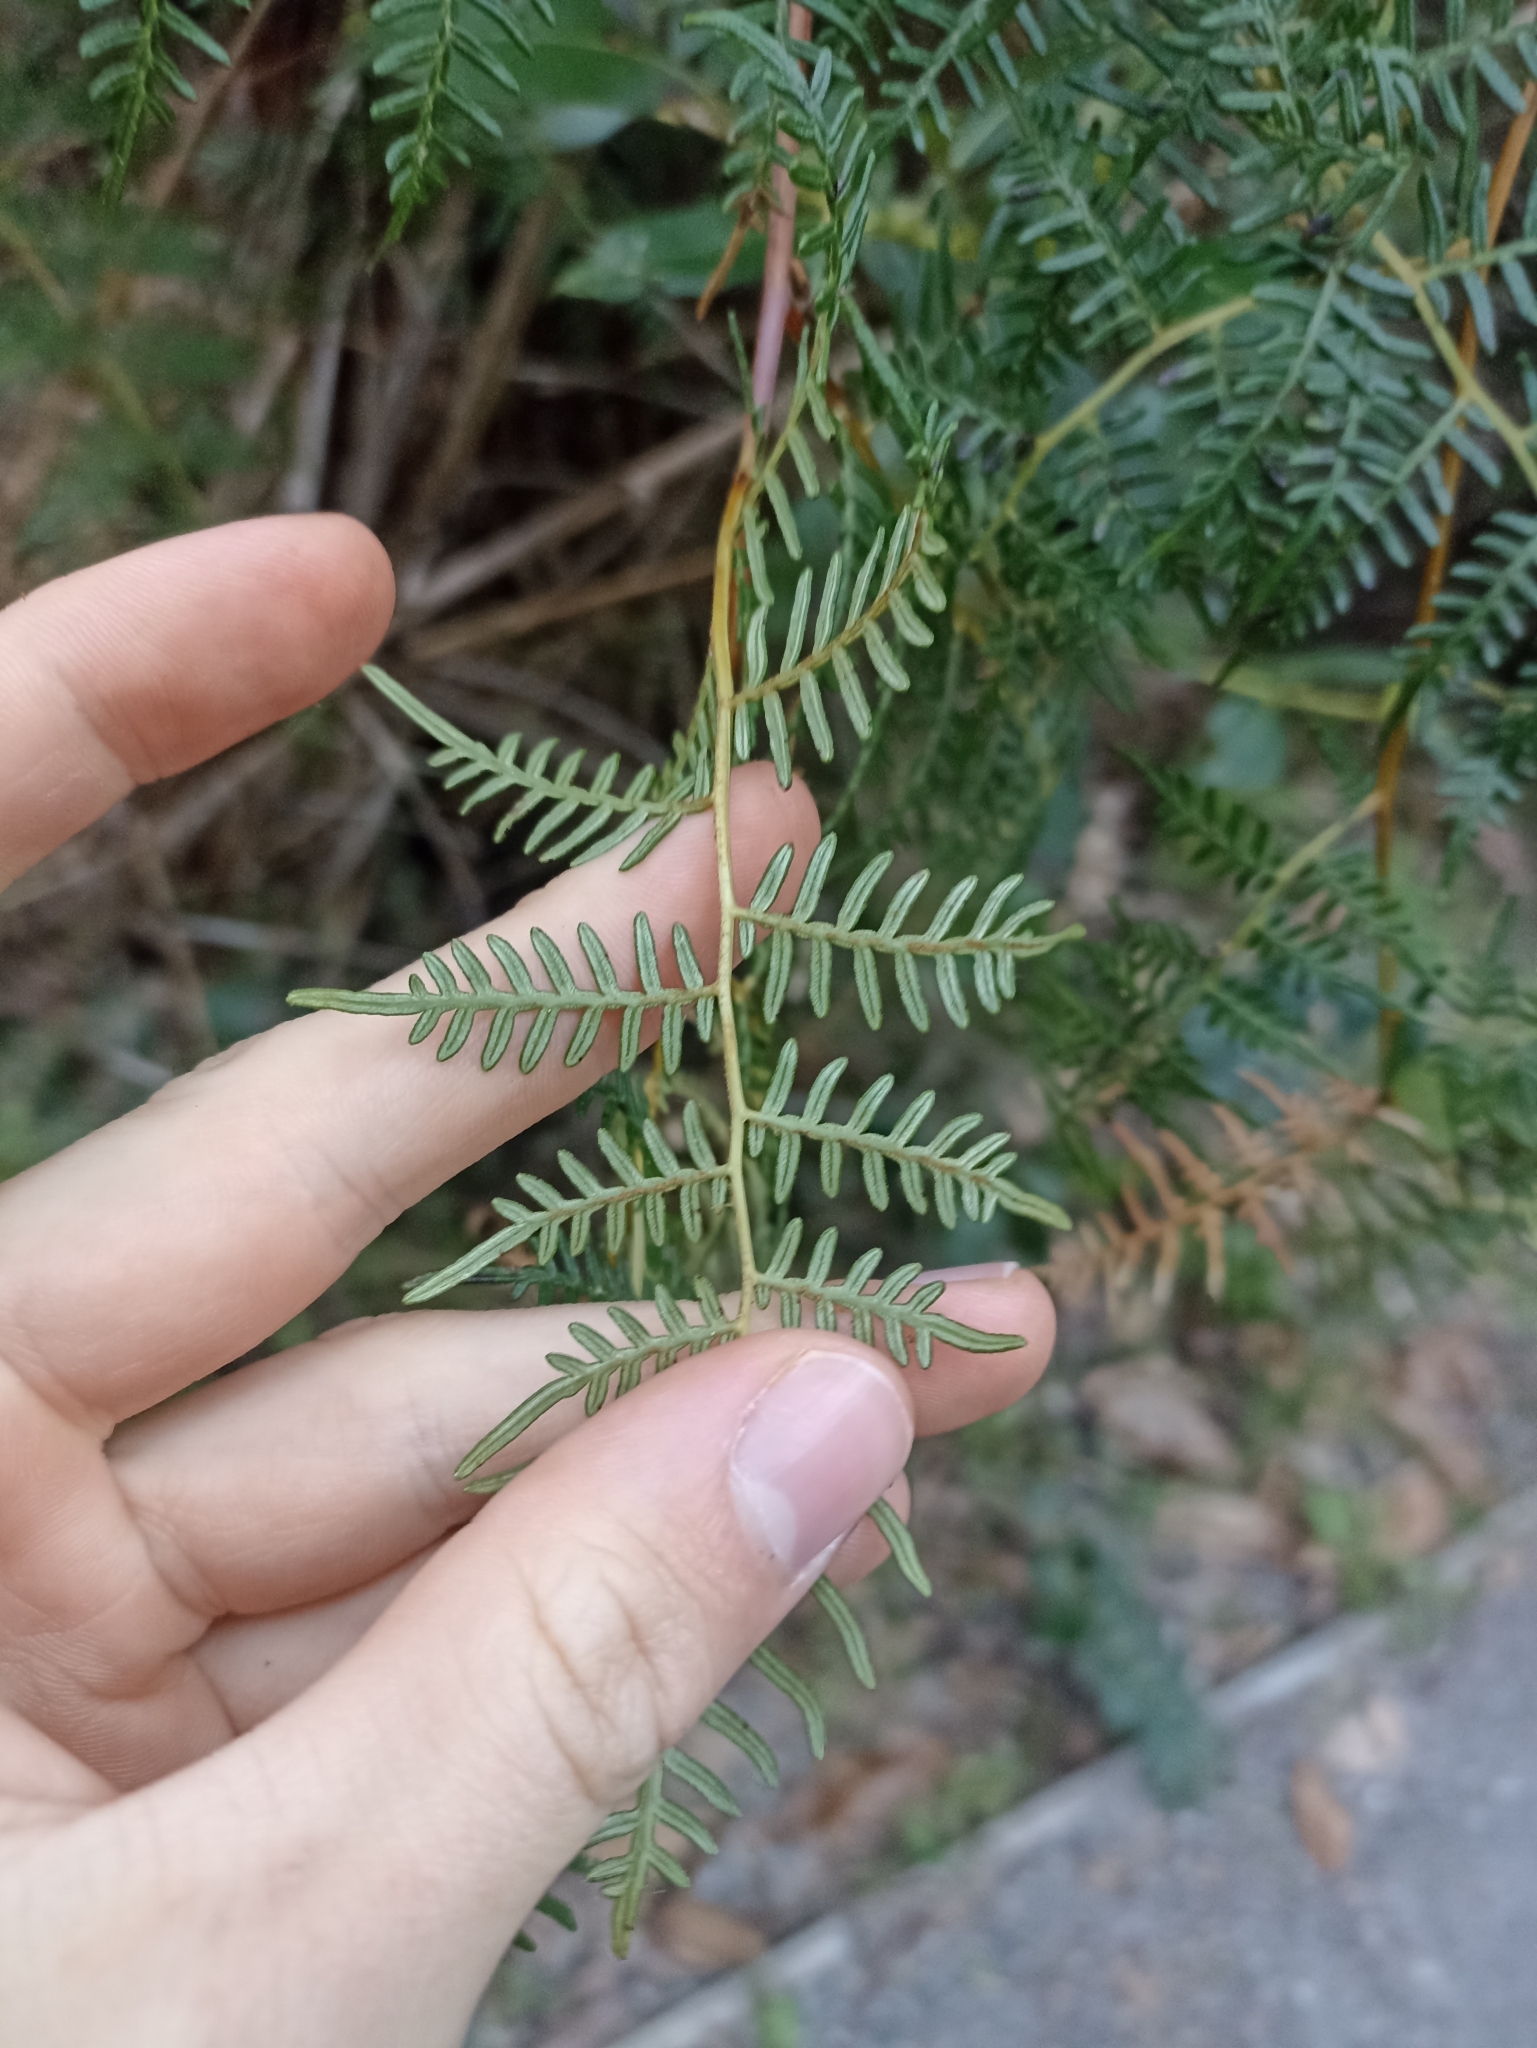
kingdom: Plantae
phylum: Tracheophyta
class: Polypodiopsida
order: Polypodiales
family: Dennstaedtiaceae
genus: Pteridium
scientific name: Pteridium esculentum
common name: Bracken fern
